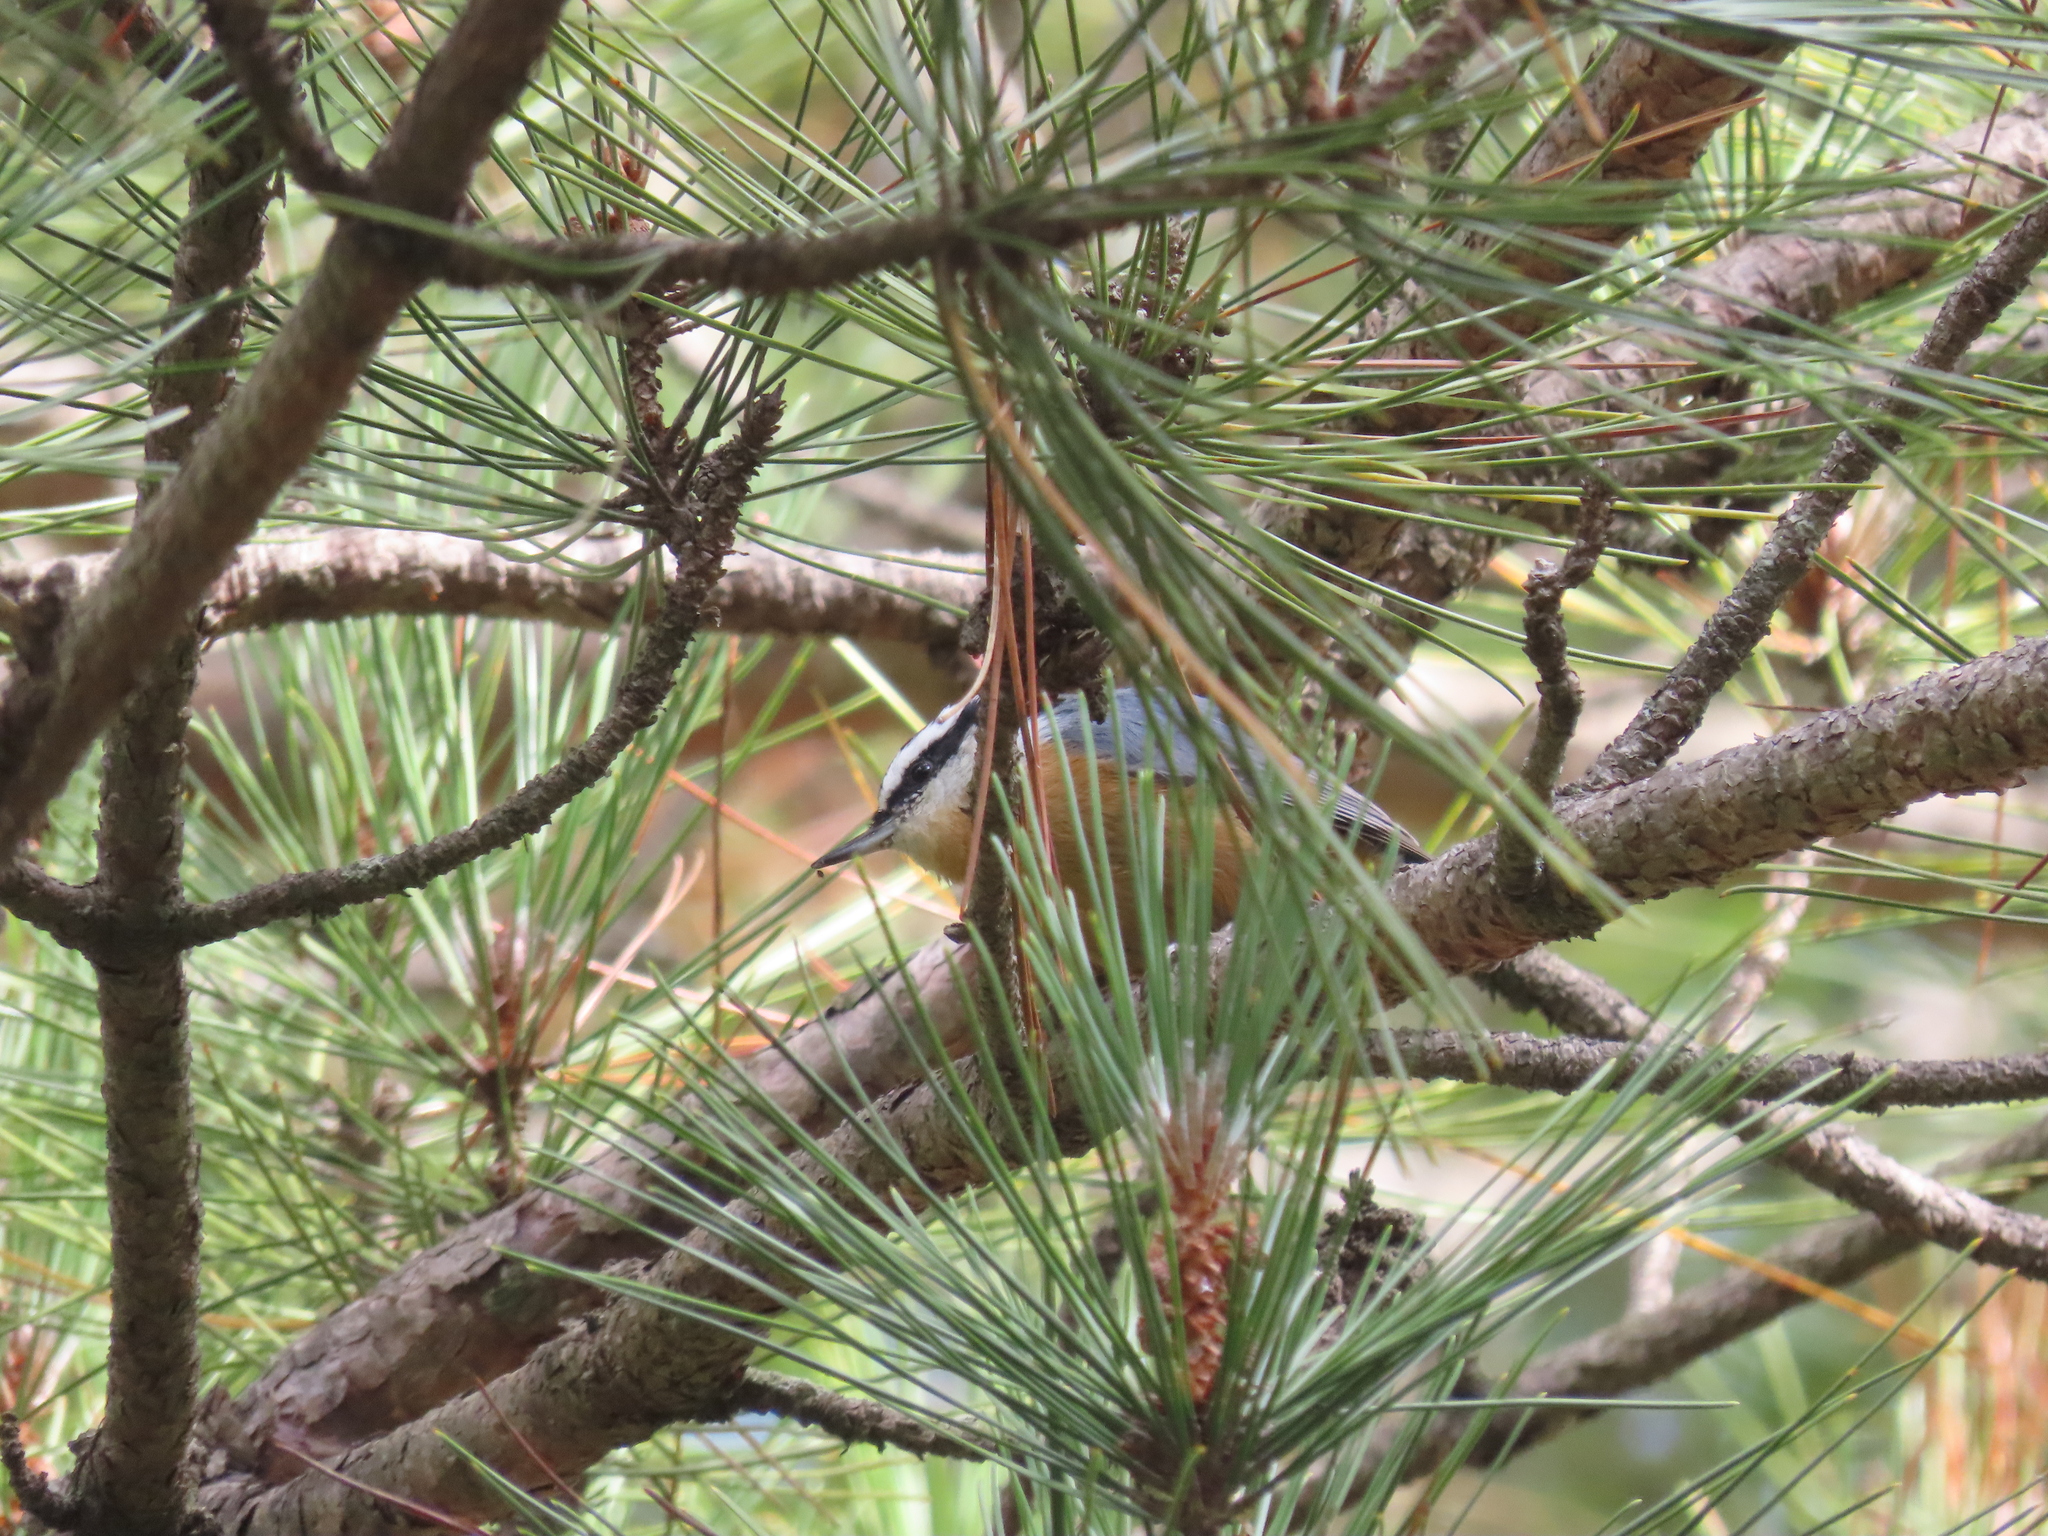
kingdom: Animalia
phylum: Chordata
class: Aves
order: Passeriformes
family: Sittidae
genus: Sitta
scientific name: Sitta canadensis
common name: Red-breasted nuthatch
